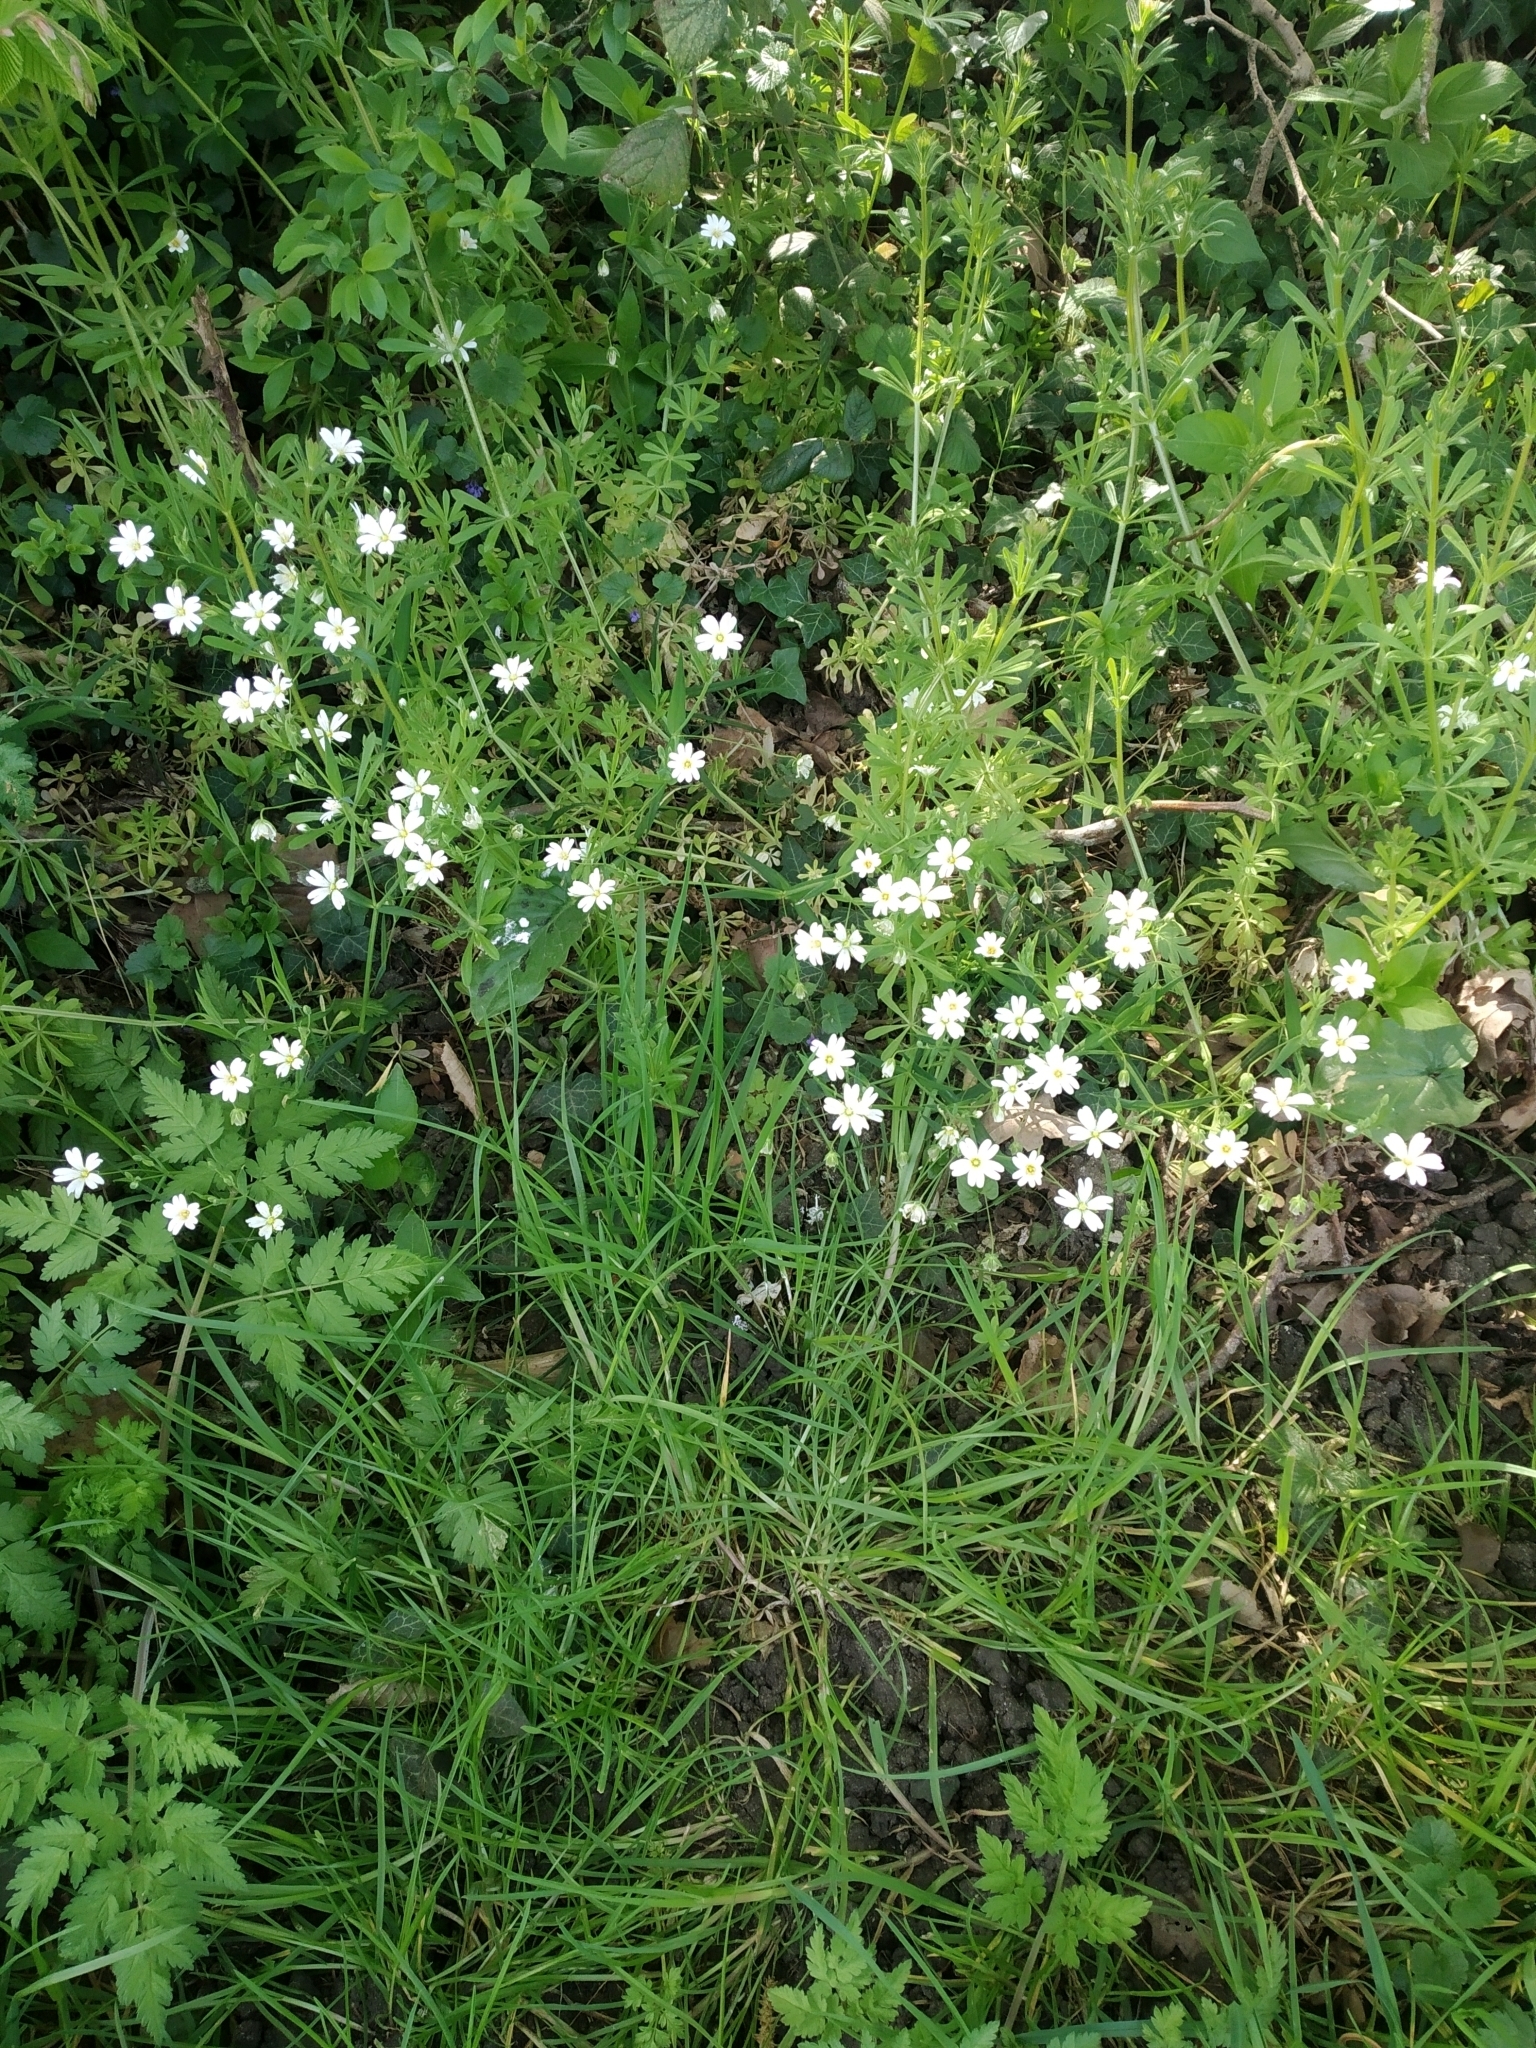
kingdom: Plantae
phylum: Tracheophyta
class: Magnoliopsida
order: Caryophyllales
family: Caryophyllaceae
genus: Rabelera
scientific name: Rabelera holostea
